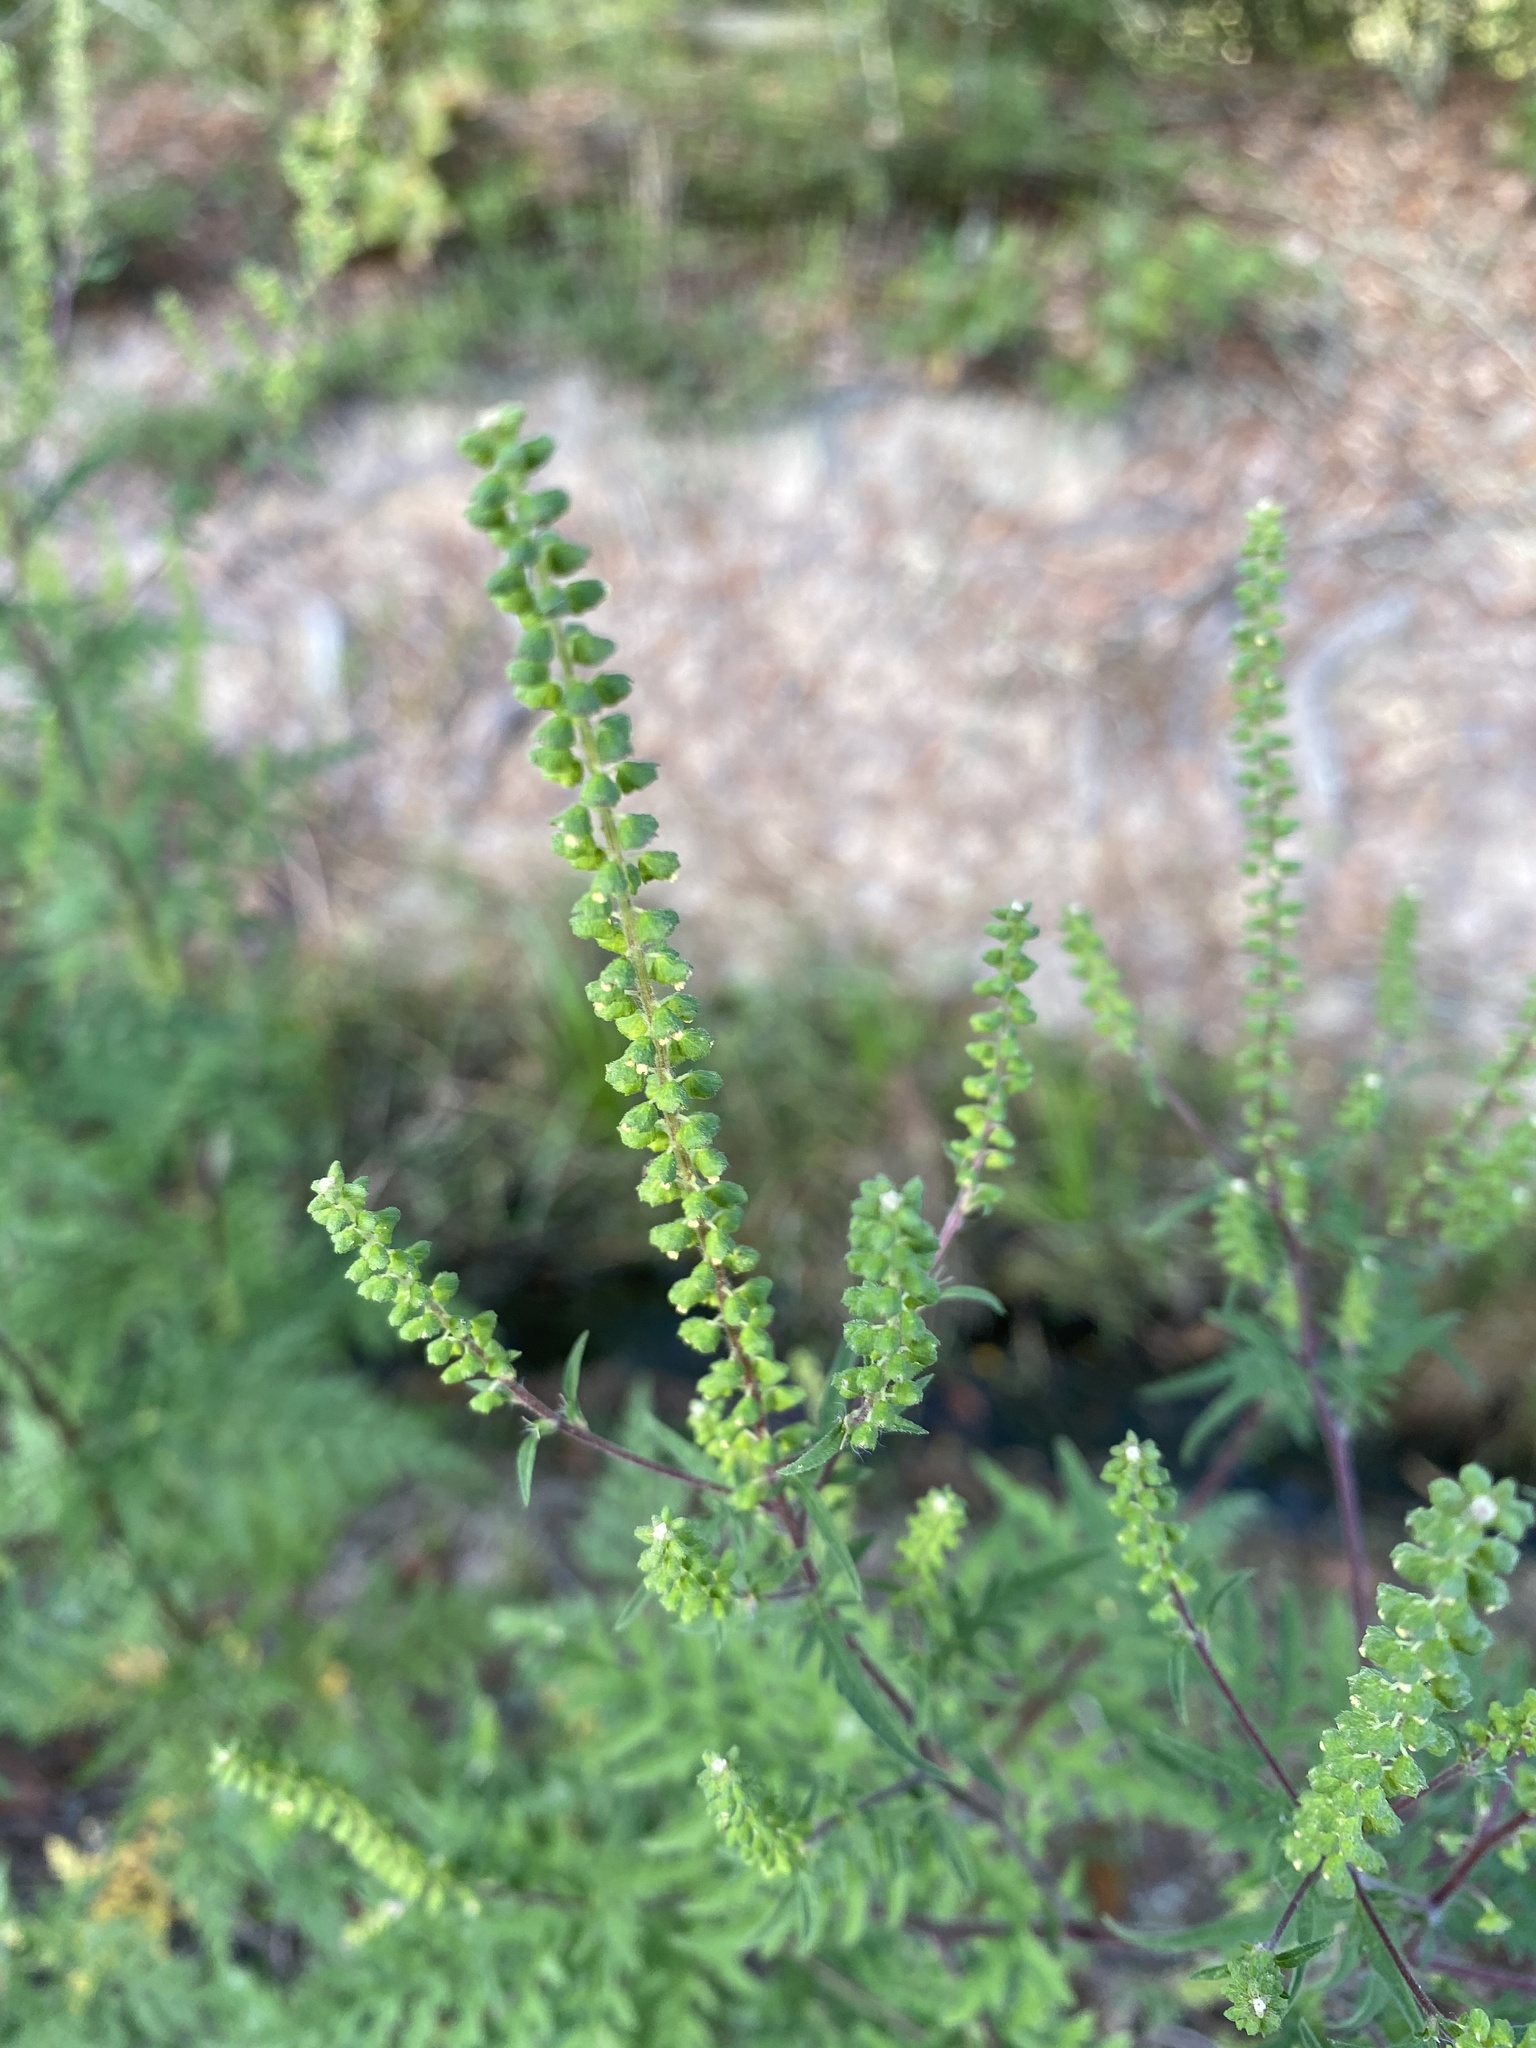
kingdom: Plantae
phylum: Tracheophyta
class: Magnoliopsida
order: Asterales
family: Asteraceae
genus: Ambrosia
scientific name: Ambrosia artemisiifolia
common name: Annual ragweed
